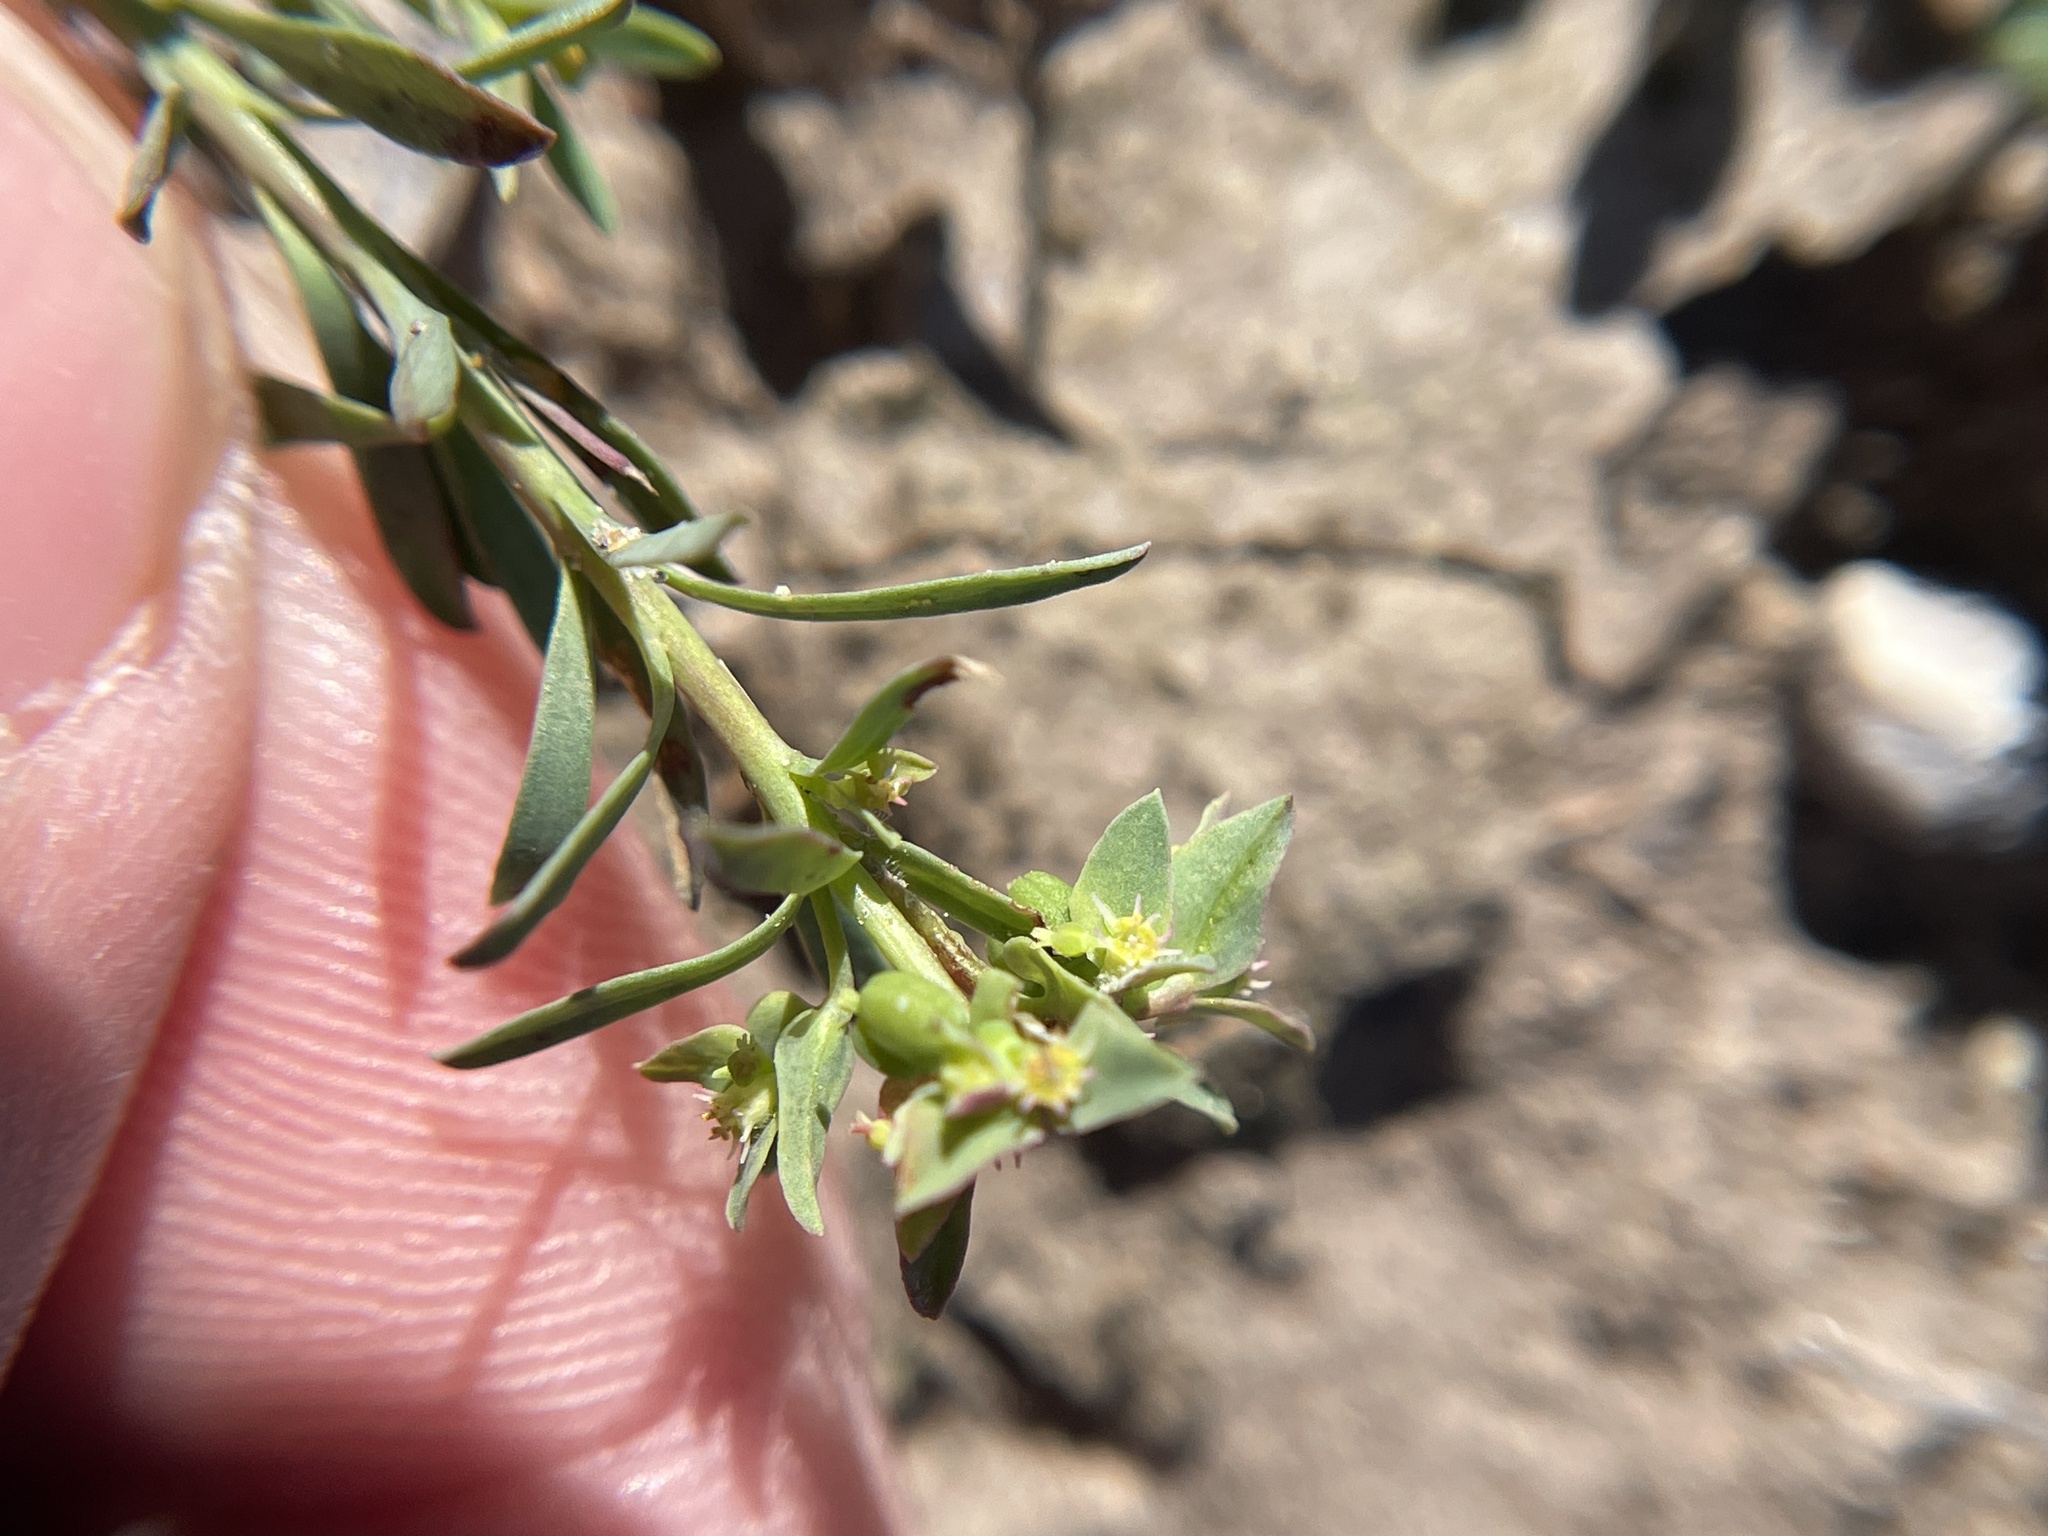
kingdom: Plantae
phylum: Tracheophyta
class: Magnoliopsida
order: Malpighiales
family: Euphorbiaceae
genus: Euphorbia
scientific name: Euphorbia peplidion
